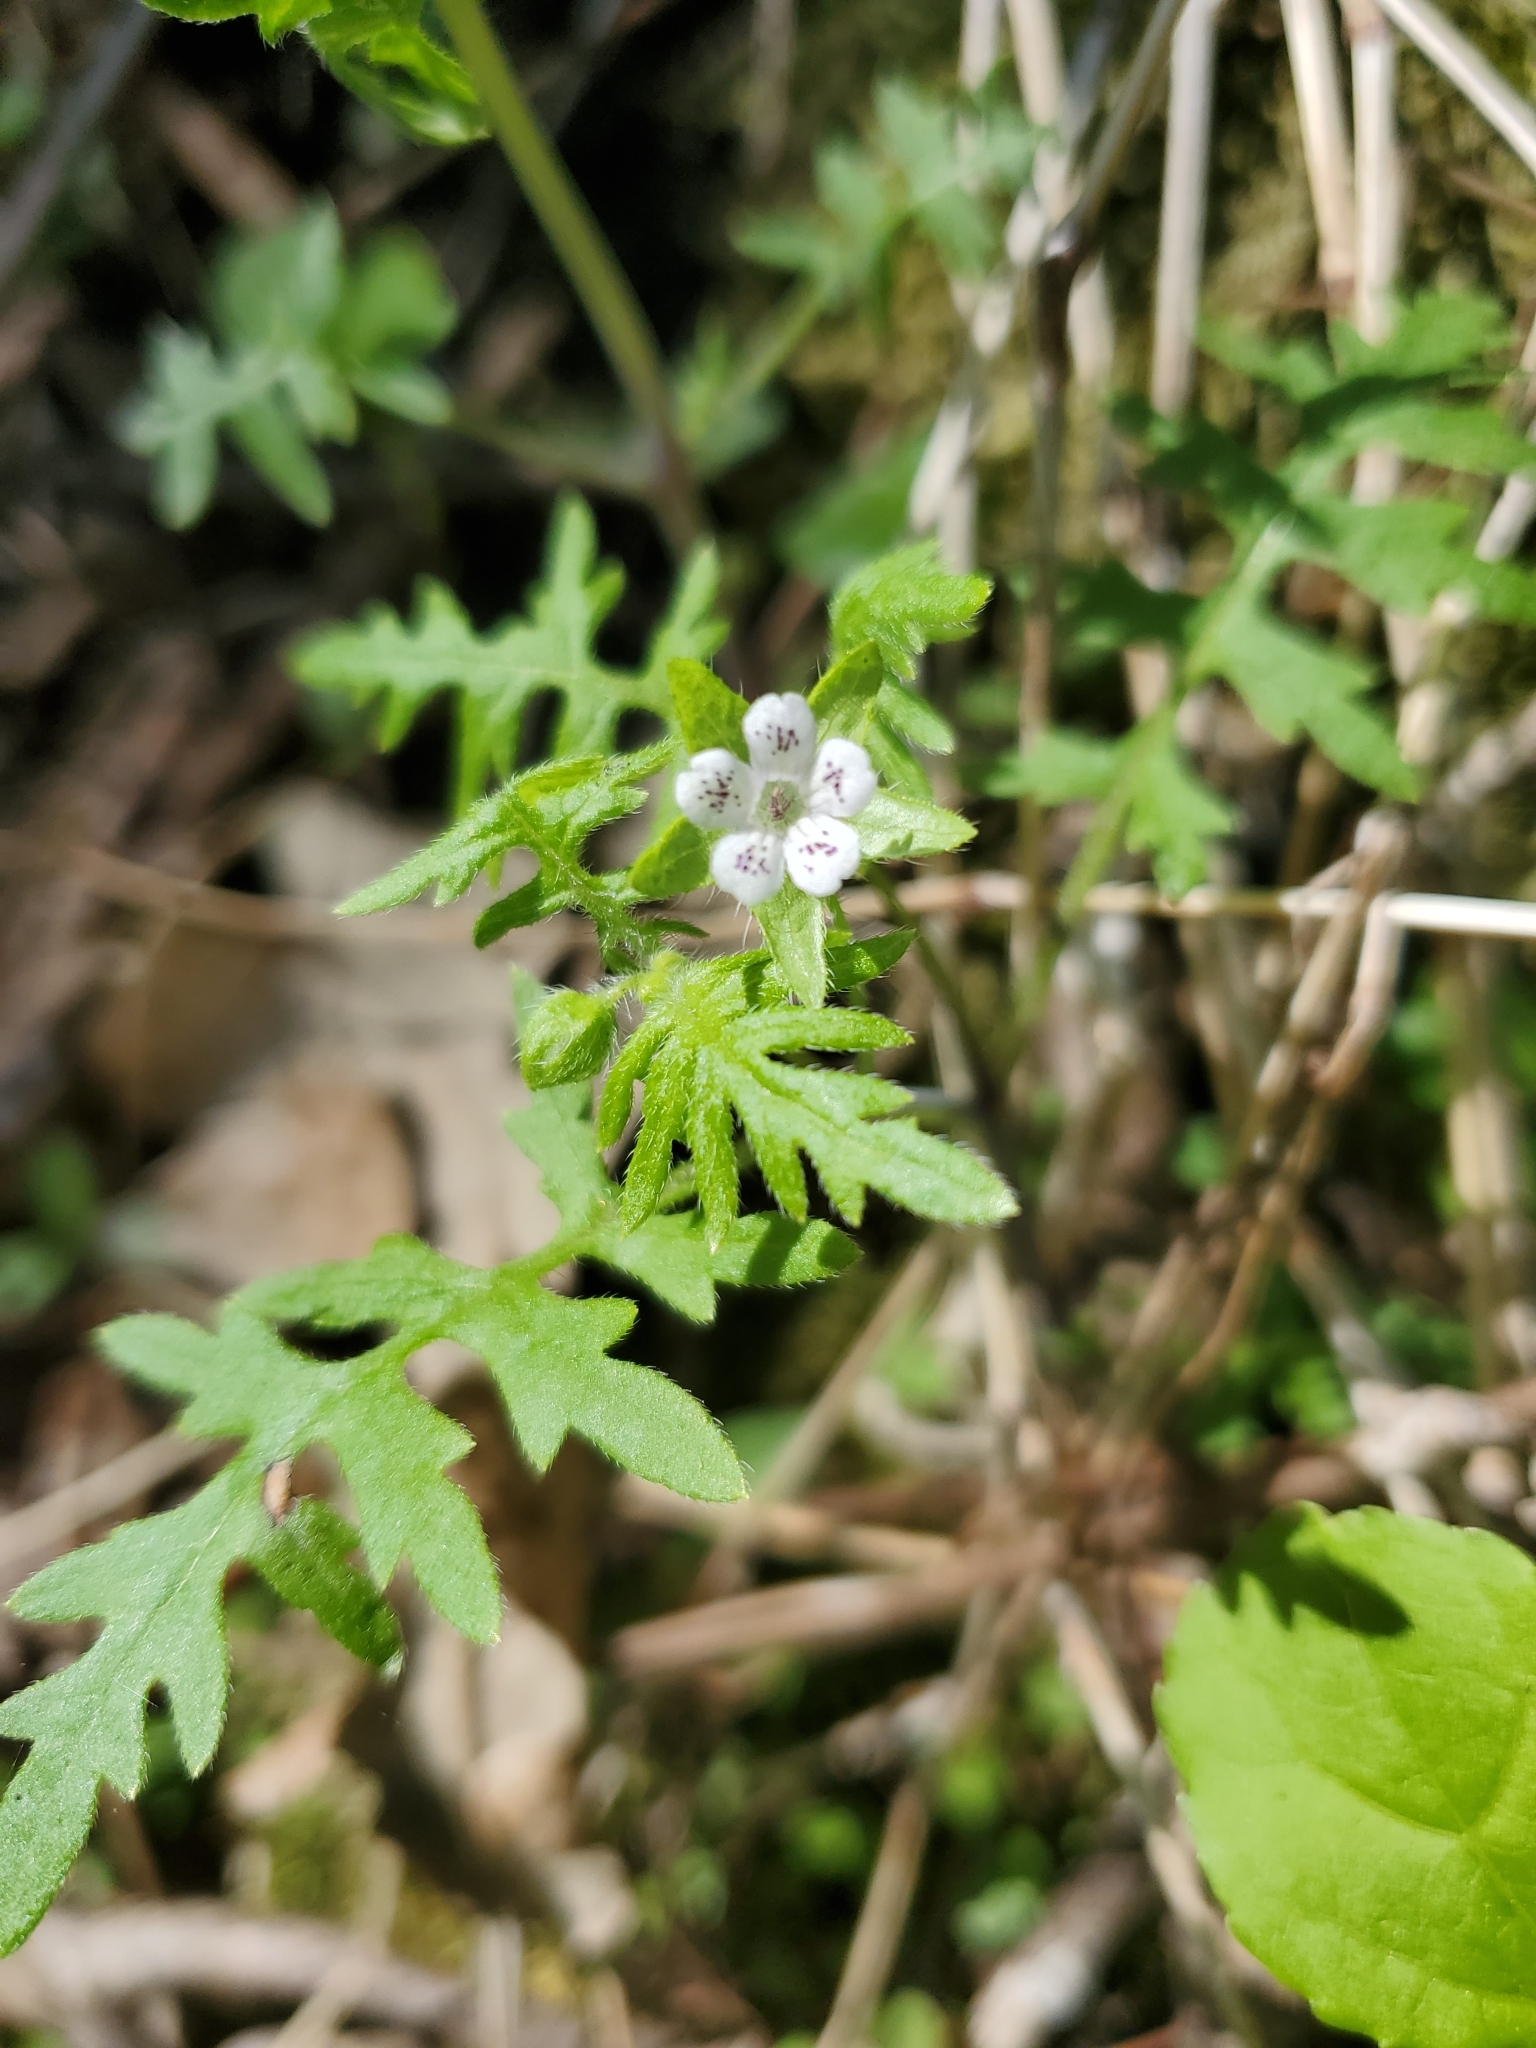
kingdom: Plantae
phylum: Tracheophyta
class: Magnoliopsida
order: Boraginales
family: Hydrophyllaceae
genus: Ellisia
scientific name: Ellisia nyctelea
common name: Aunt lucy
